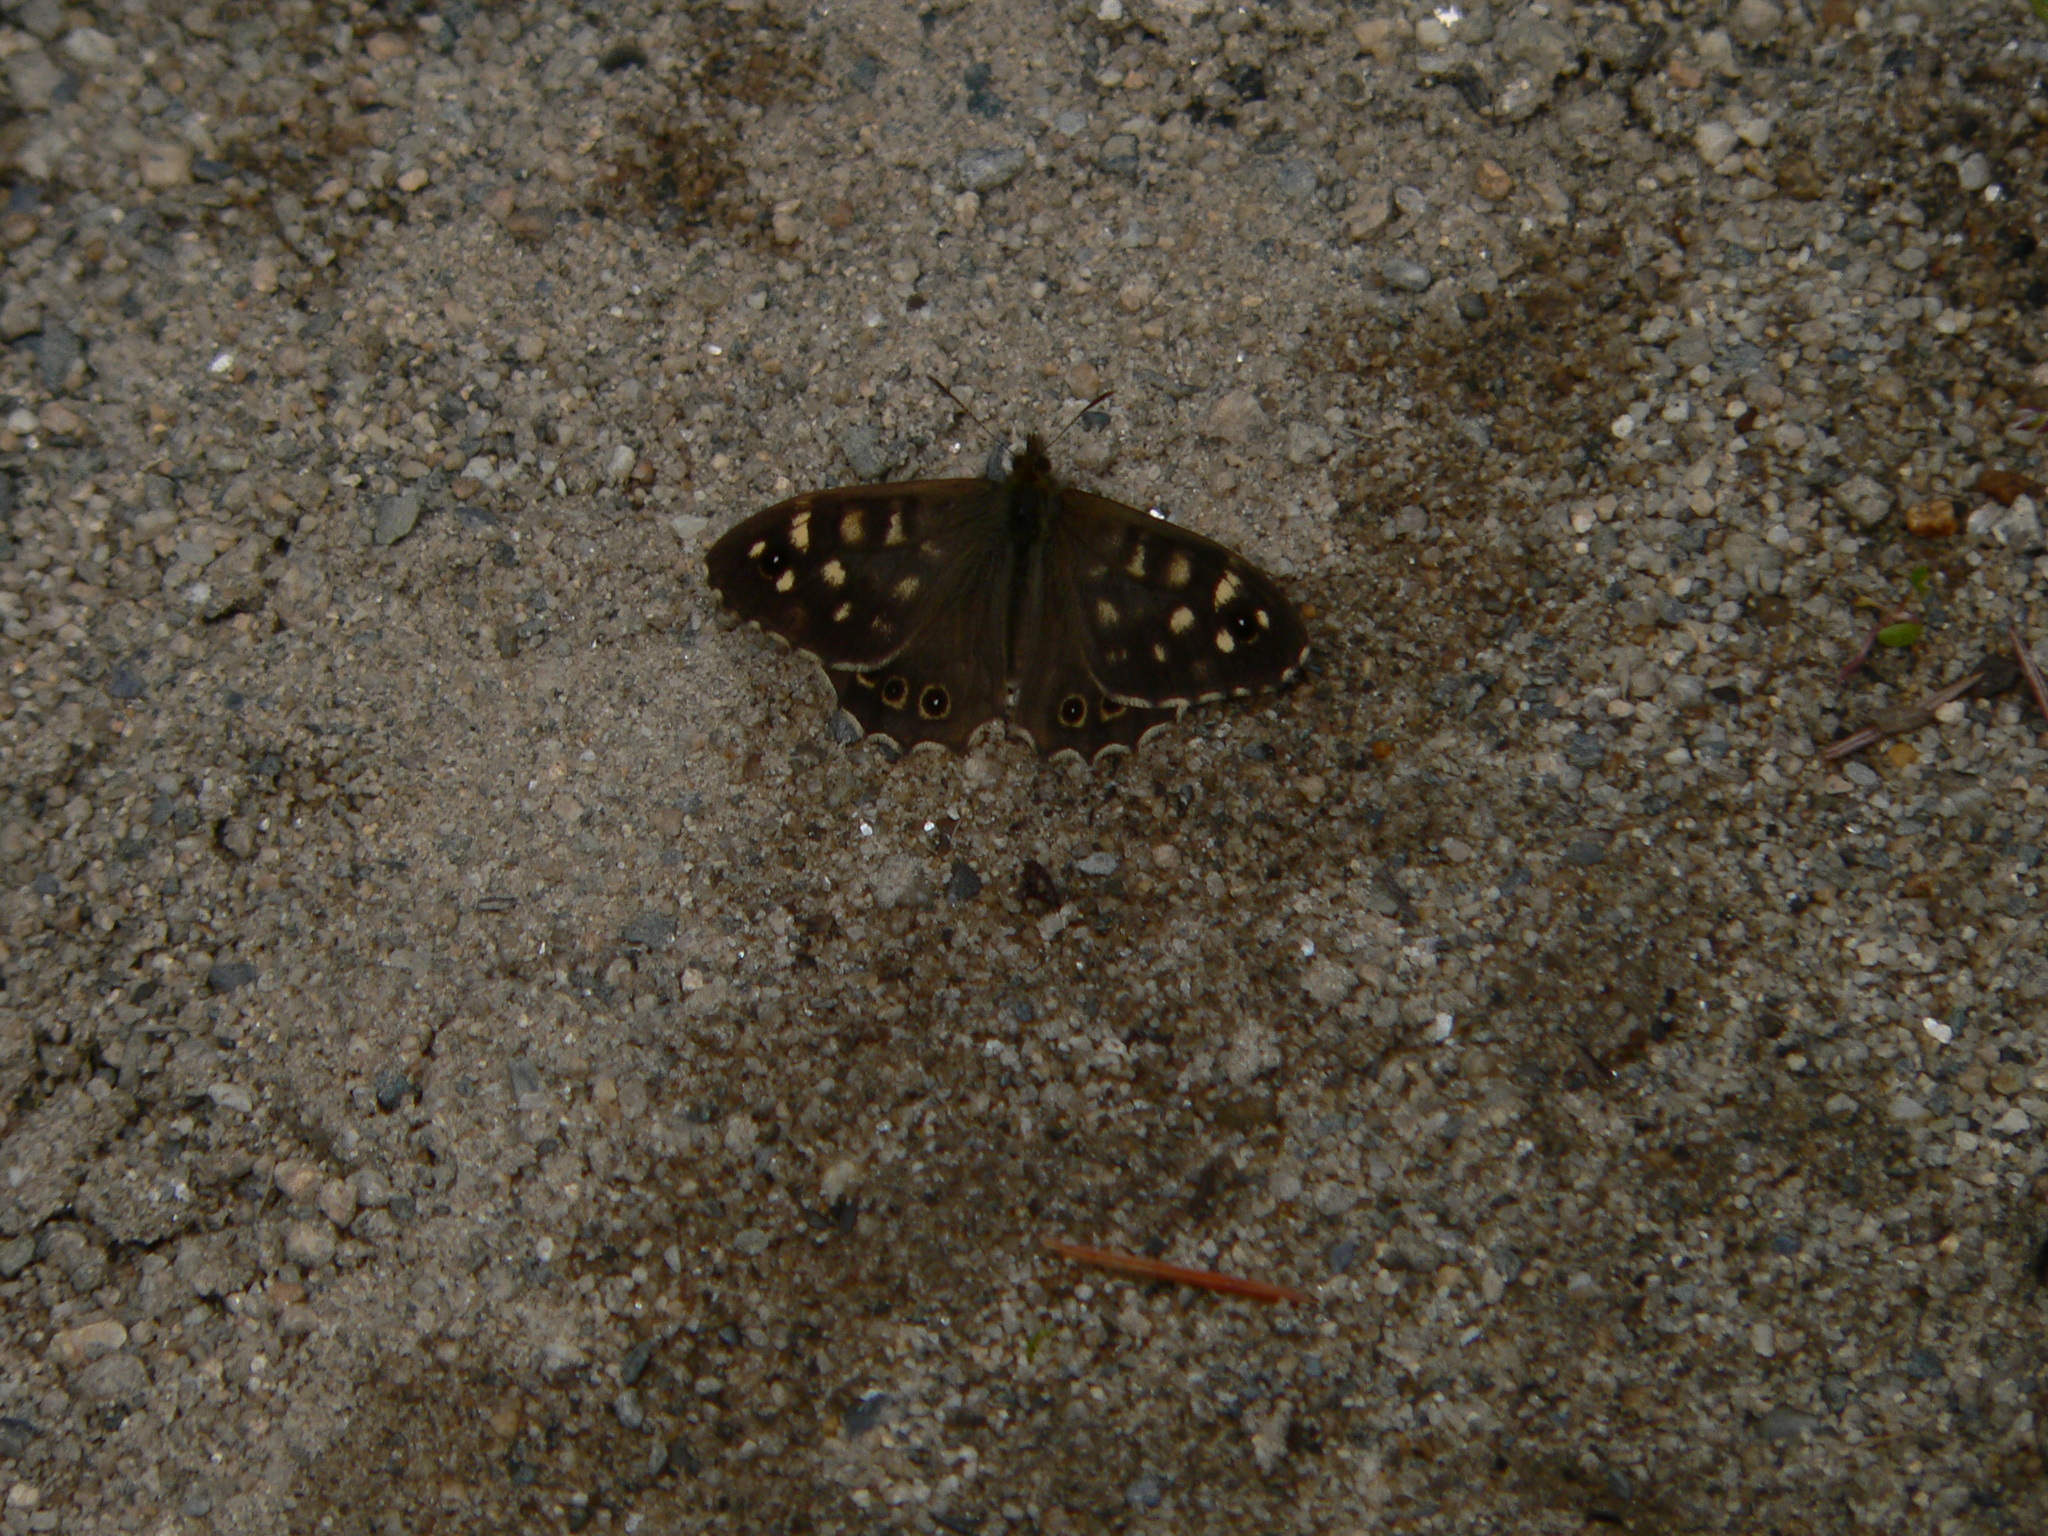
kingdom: Animalia
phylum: Arthropoda
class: Insecta
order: Lepidoptera
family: Nymphalidae
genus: Pararge
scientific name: Pararge aegeria
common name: Speckled wood
